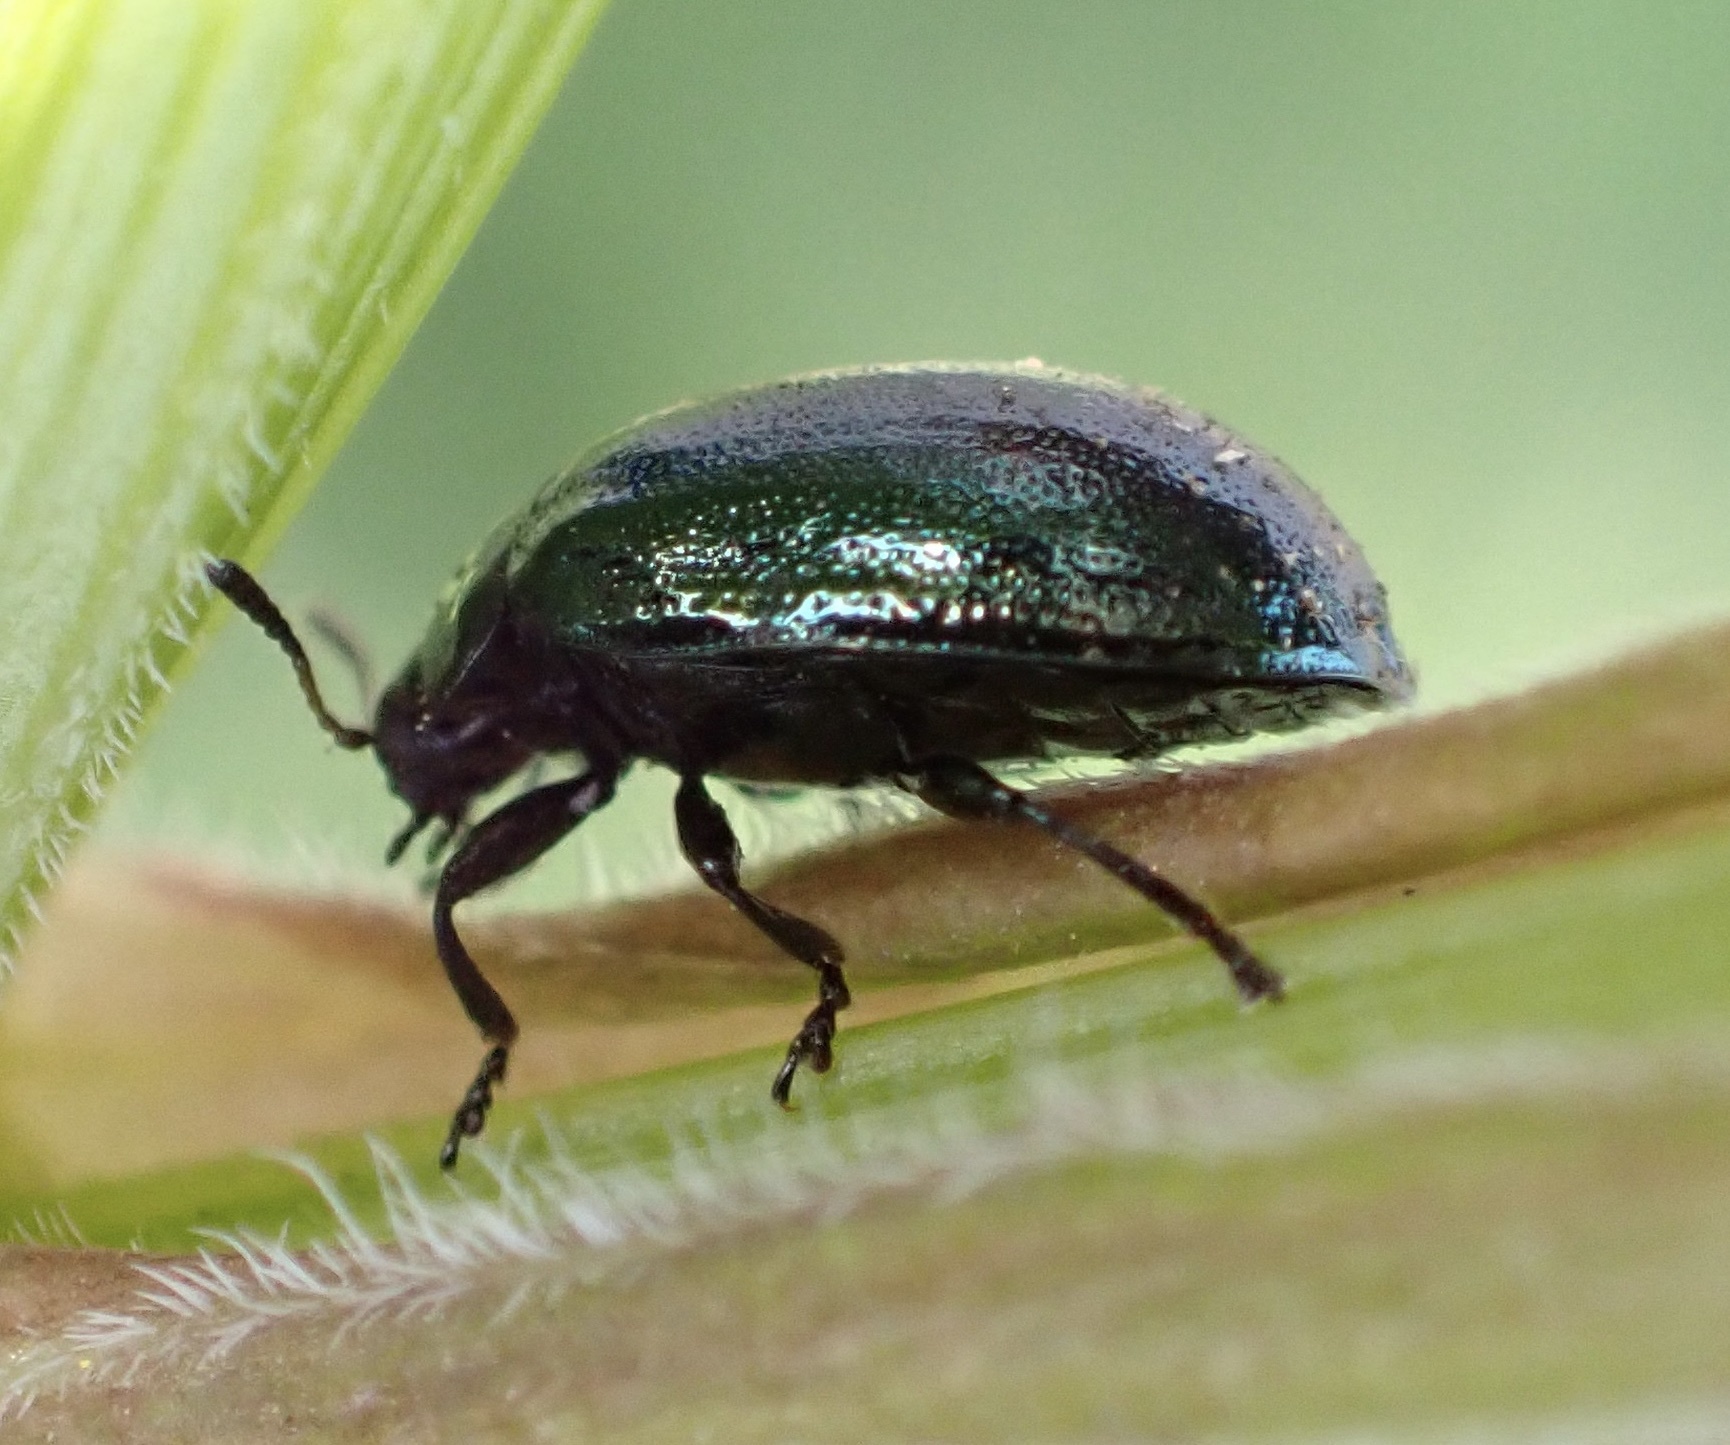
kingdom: Animalia
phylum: Arthropoda
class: Insecta
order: Coleoptera
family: Chrysomelidae
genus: Plagiodera
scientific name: Plagiodera versicolora
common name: Imported willow leaf beetle
